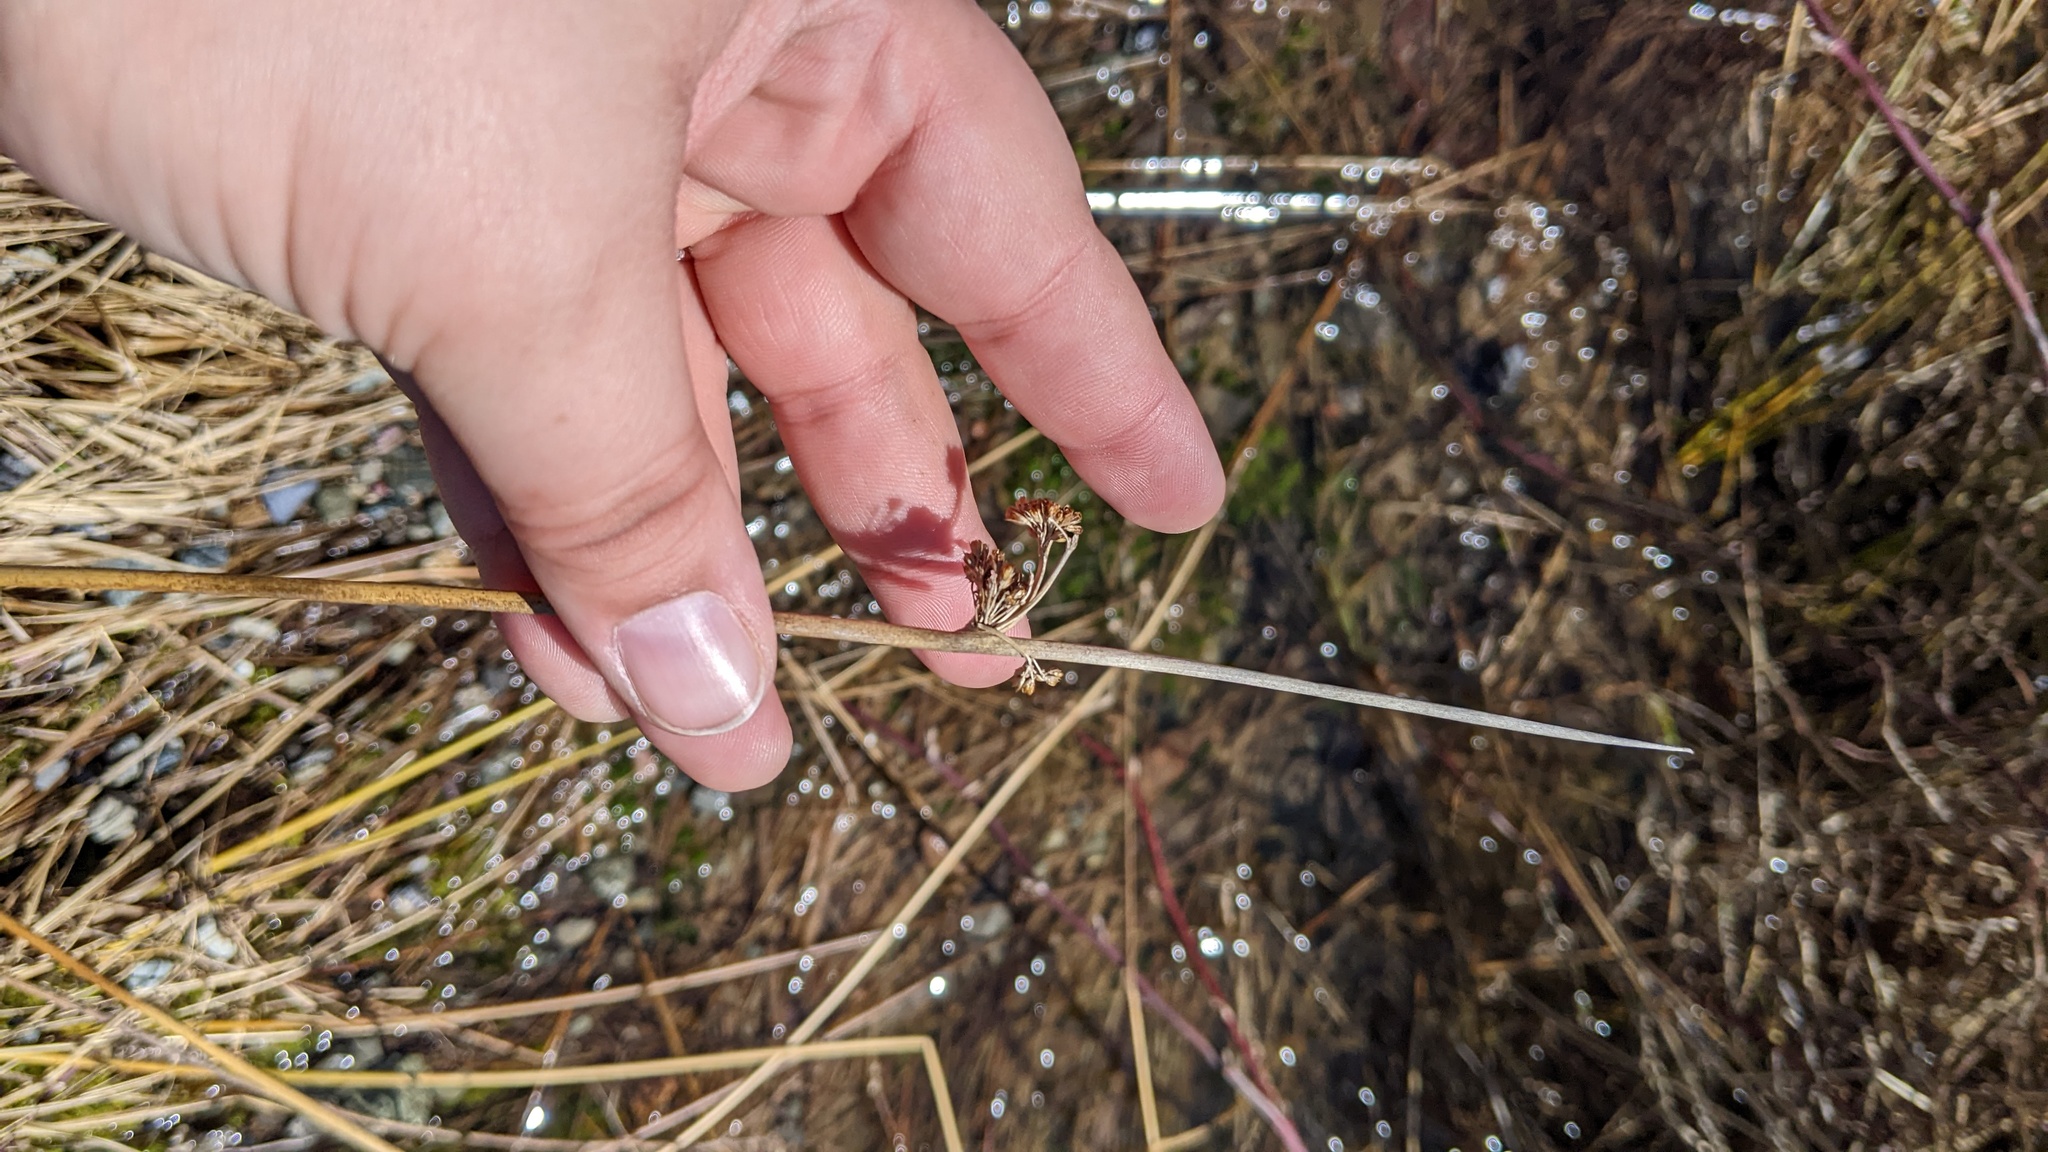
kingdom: Plantae
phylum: Tracheophyta
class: Liliopsida
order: Poales
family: Juncaceae
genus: Juncus
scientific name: Juncus effusus
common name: Soft rush
